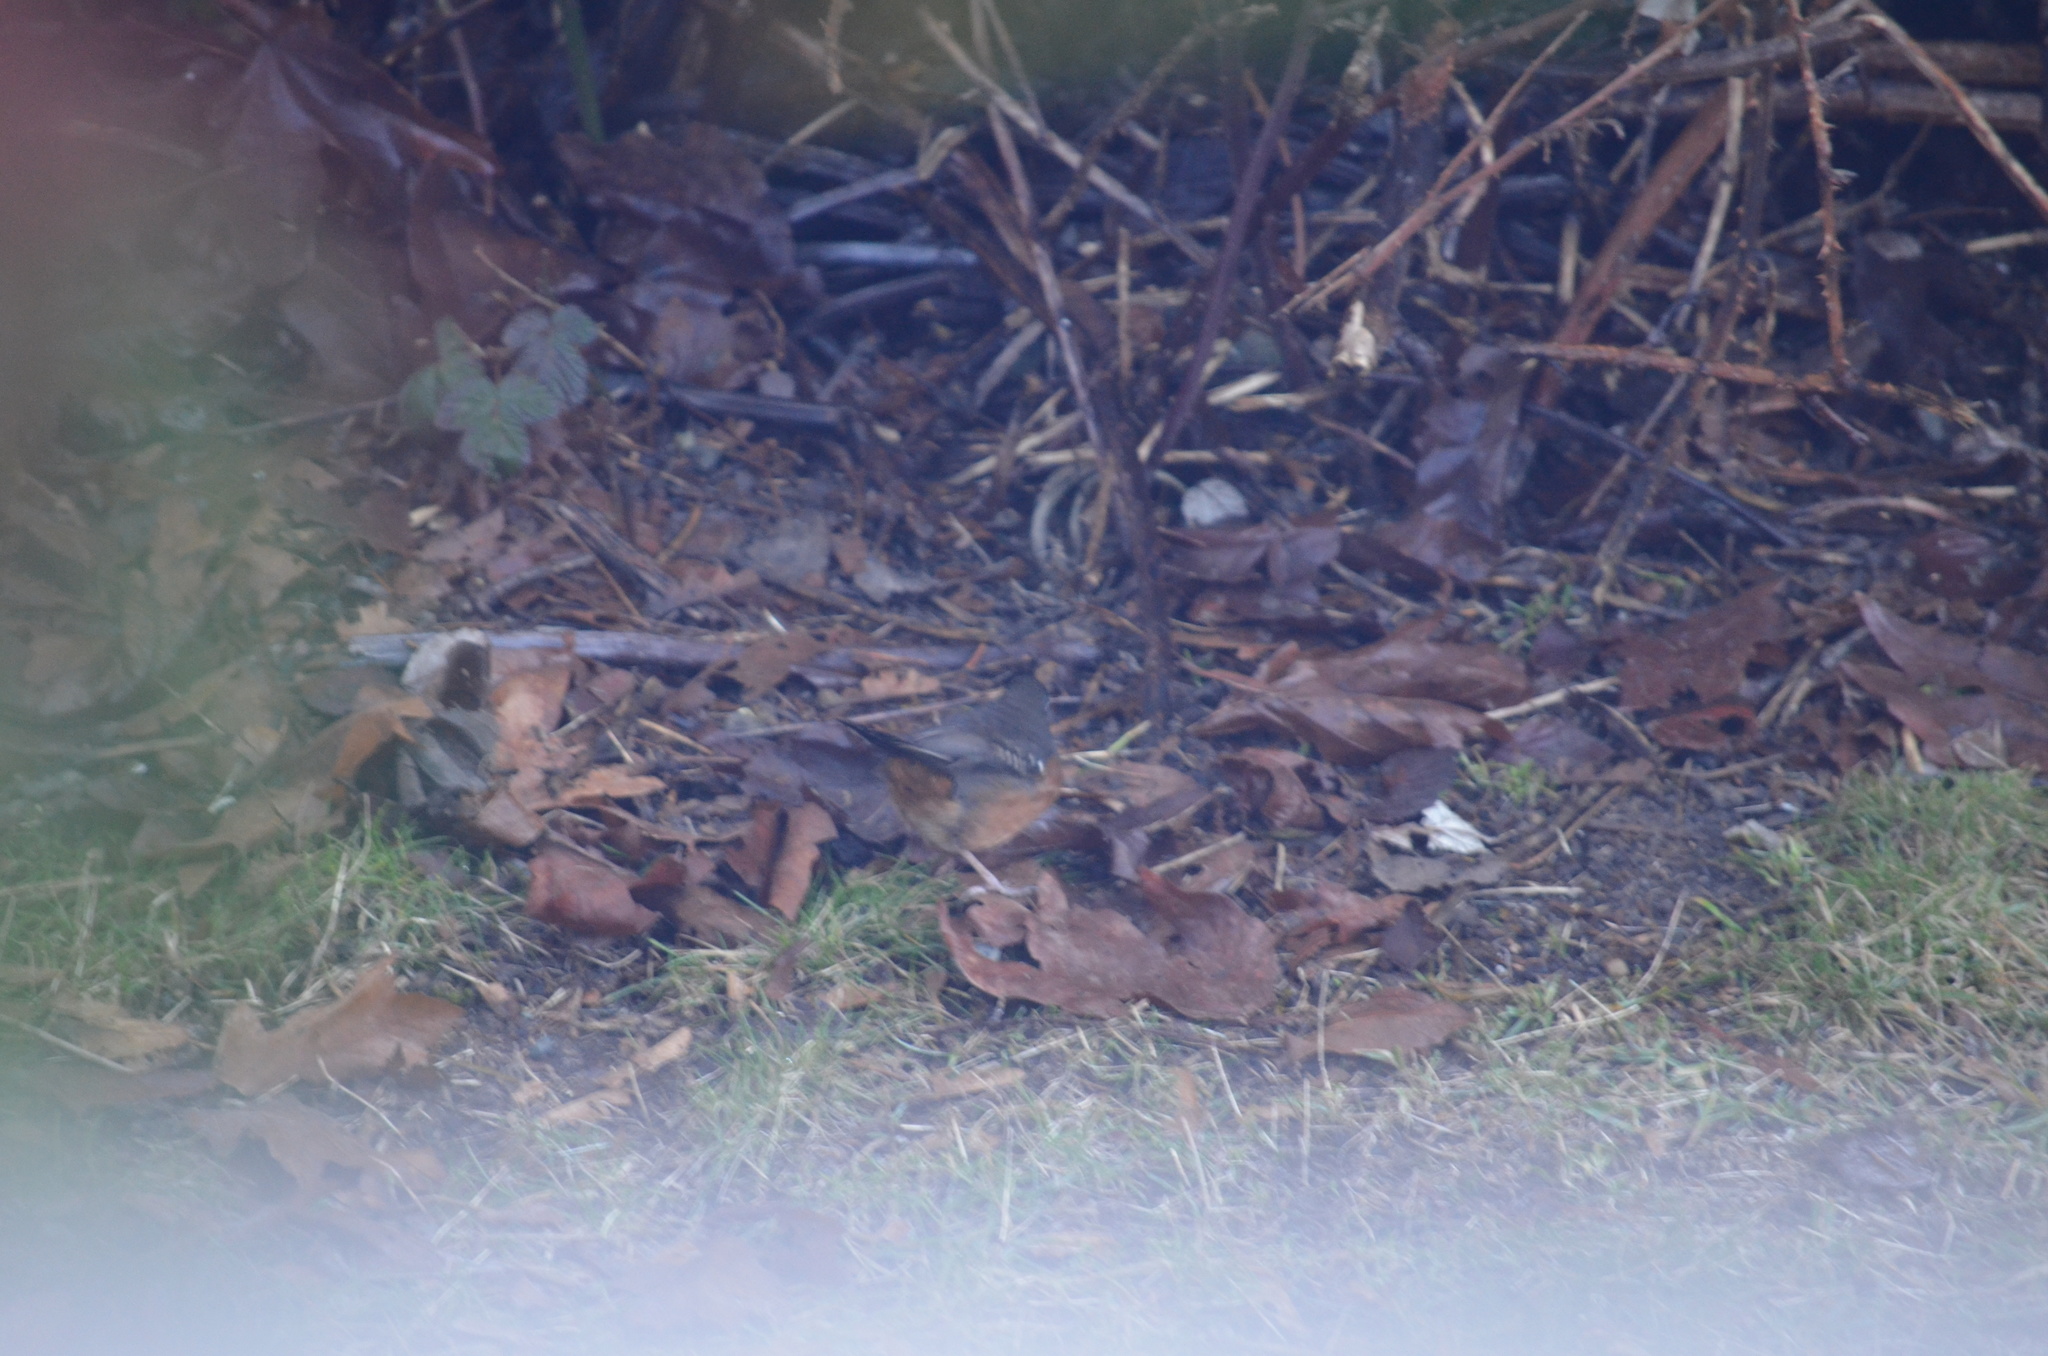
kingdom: Animalia
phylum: Chordata
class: Aves
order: Passeriformes
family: Passerellidae
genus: Pipilo
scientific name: Pipilo maculatus
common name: Spotted towhee
